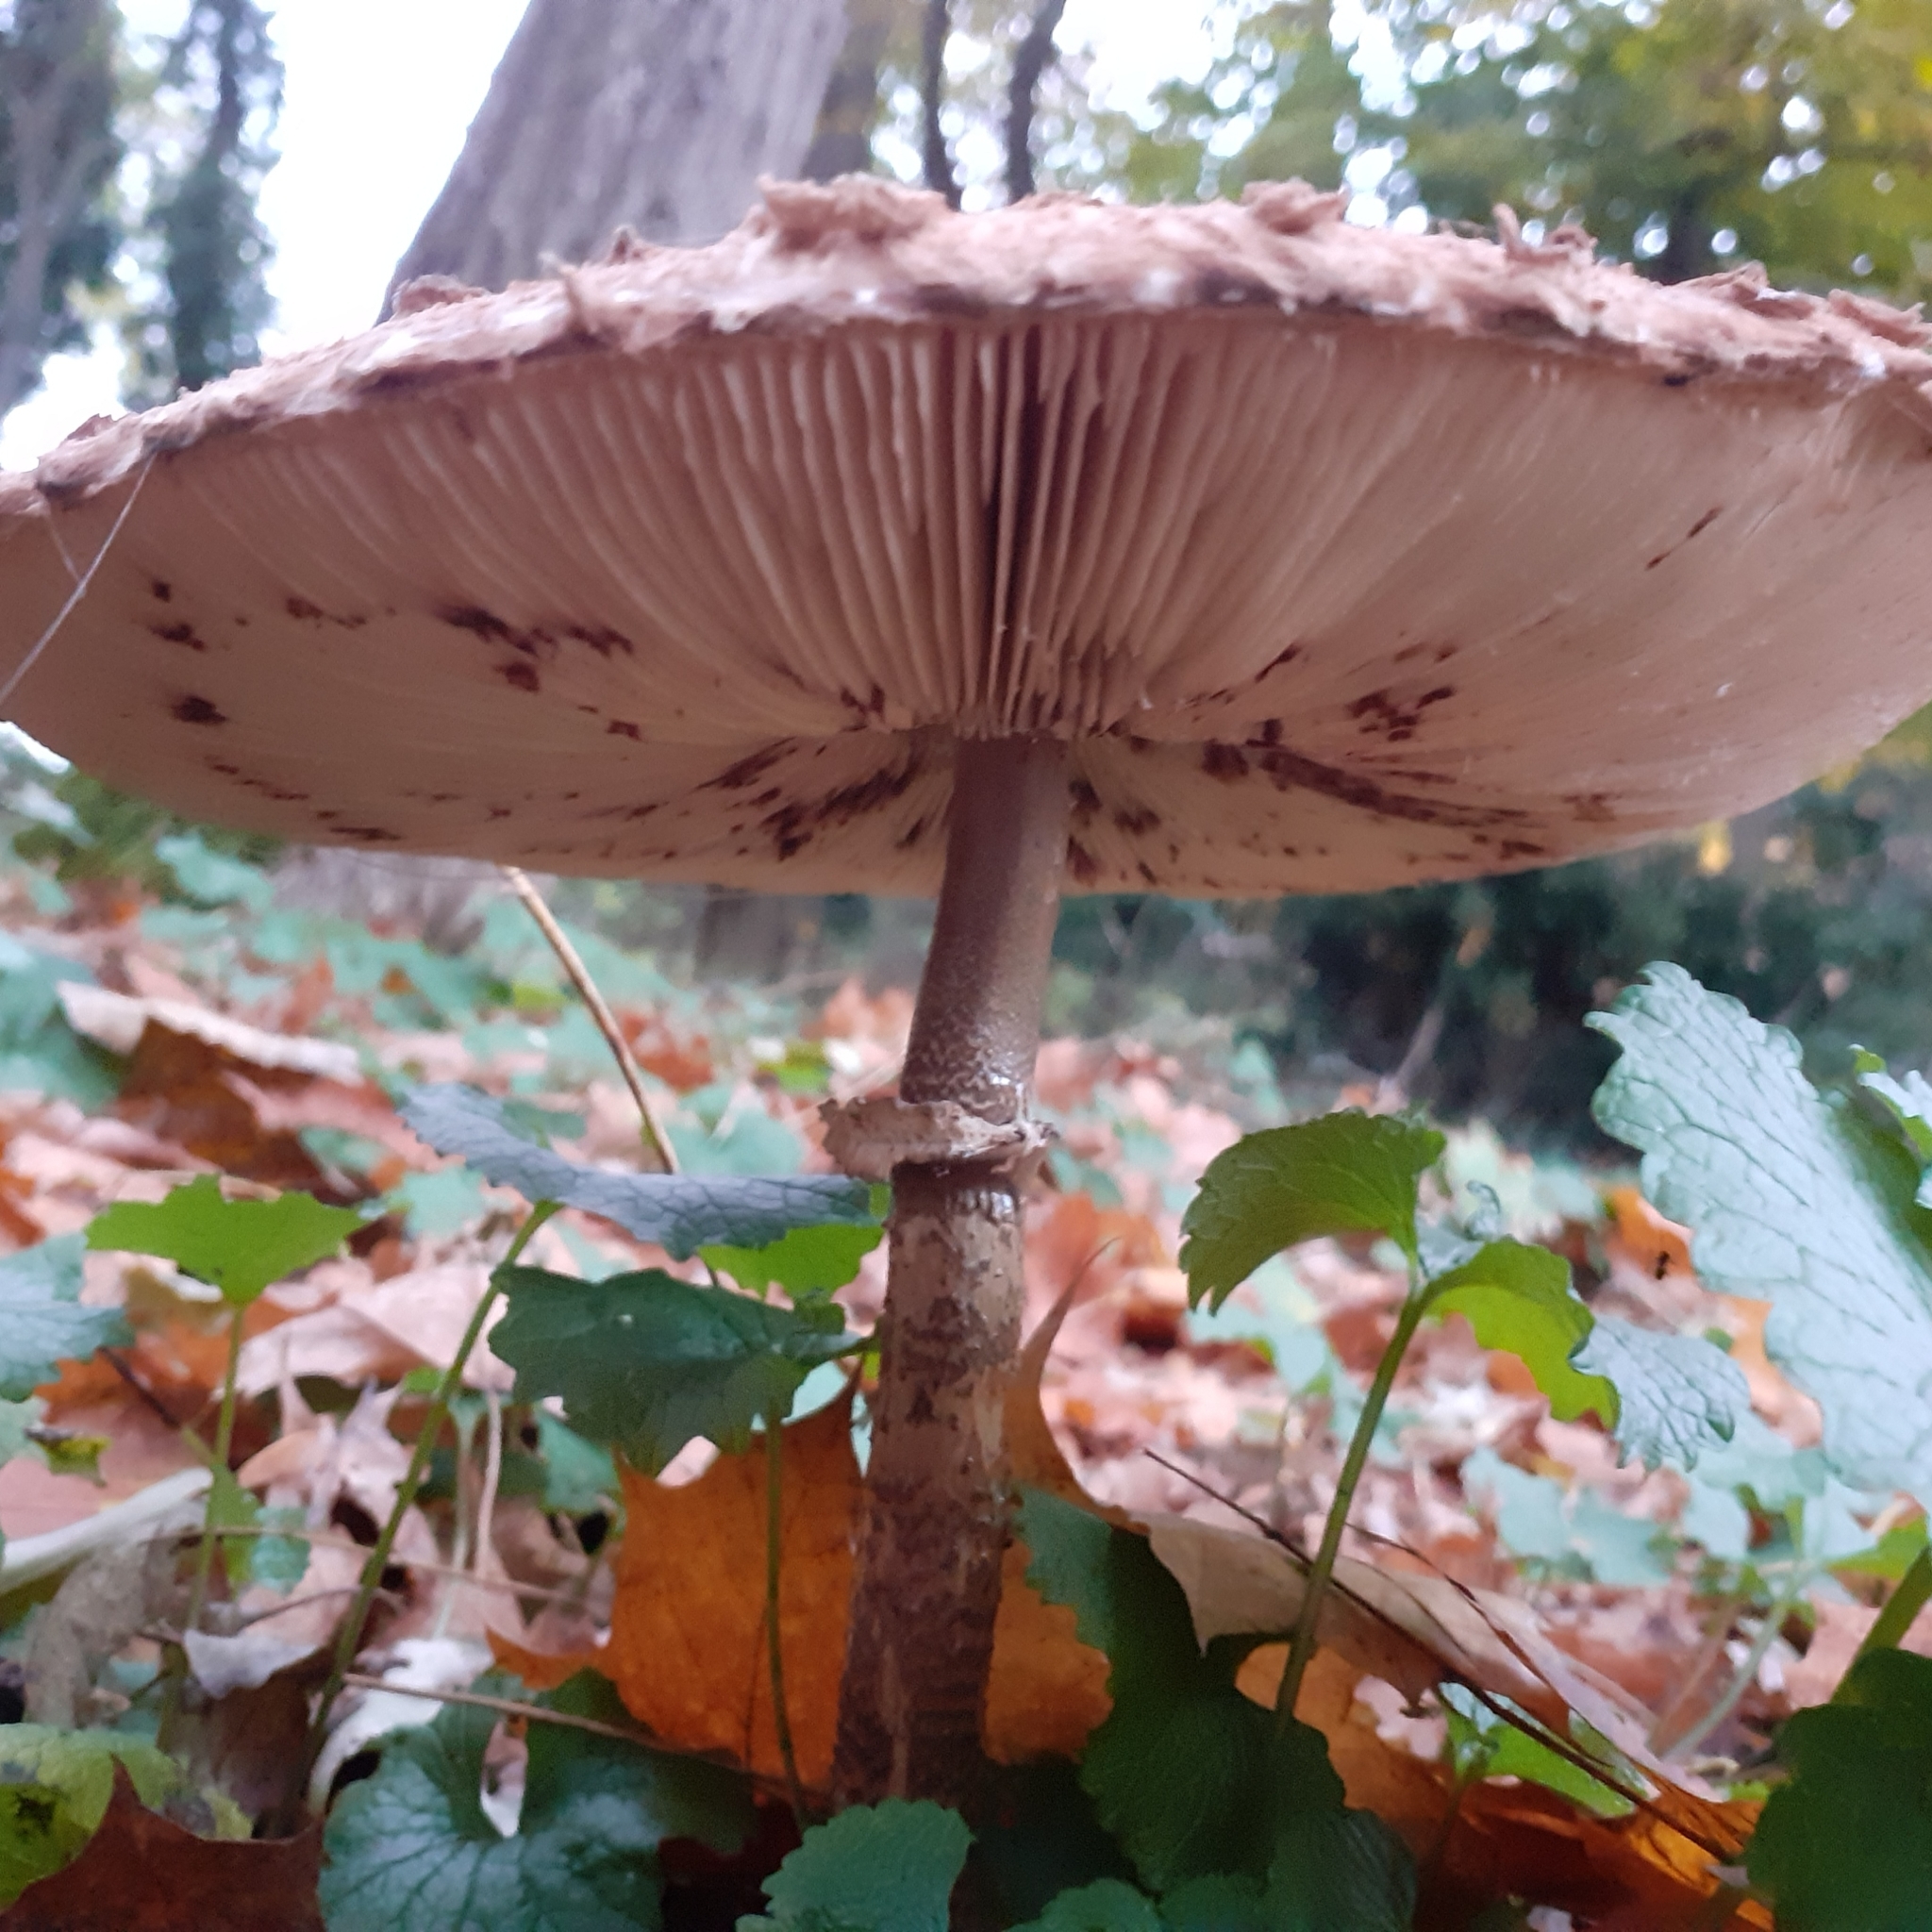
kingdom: Fungi
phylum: Basidiomycota
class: Agaricomycetes
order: Agaricales
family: Agaricaceae
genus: Macrolepiota
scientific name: Macrolepiota procera
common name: Parasol
